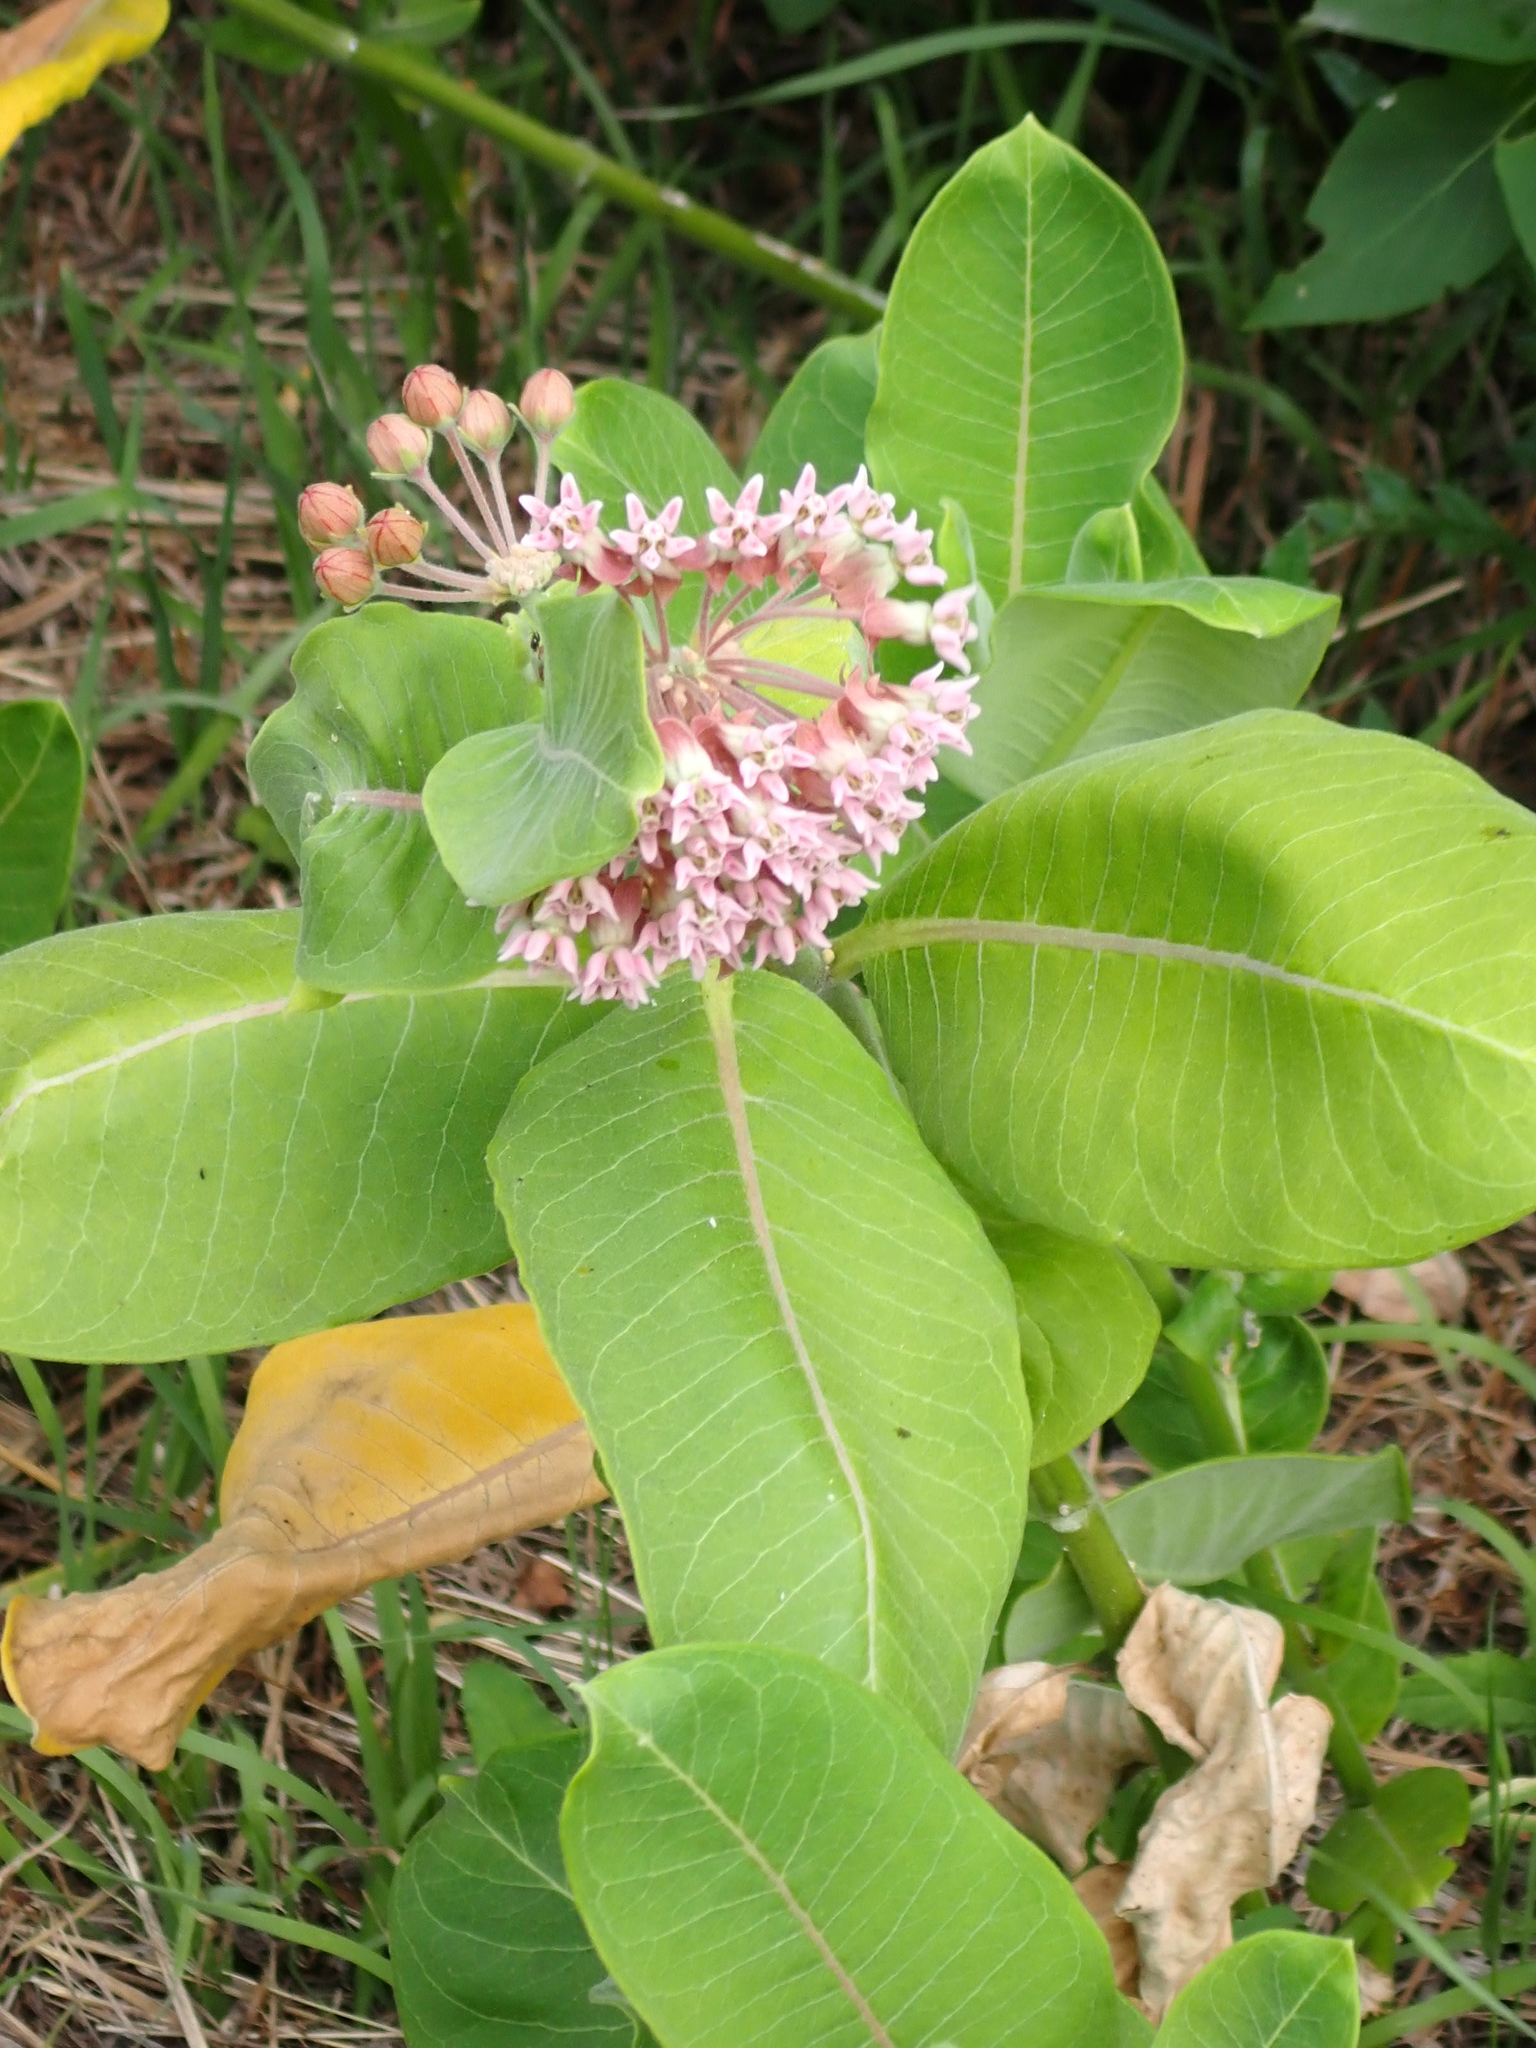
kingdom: Plantae
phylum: Tracheophyta
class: Magnoliopsida
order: Gentianales
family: Apocynaceae
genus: Asclepias
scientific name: Asclepias syriaca
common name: Common milkweed
